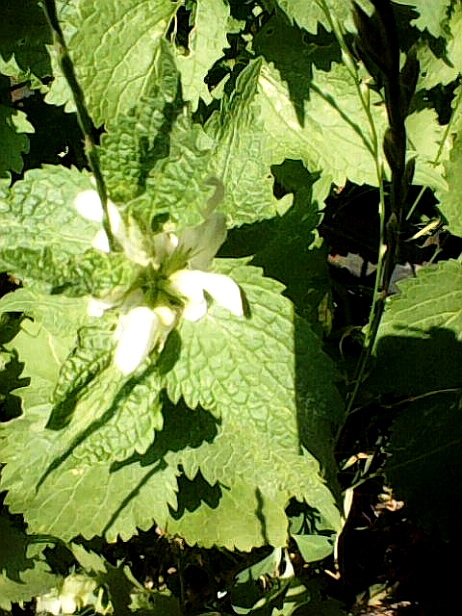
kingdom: Plantae
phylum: Tracheophyta
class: Magnoliopsida
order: Lamiales
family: Lamiaceae
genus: Lamium
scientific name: Lamium album
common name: White dead-nettle
